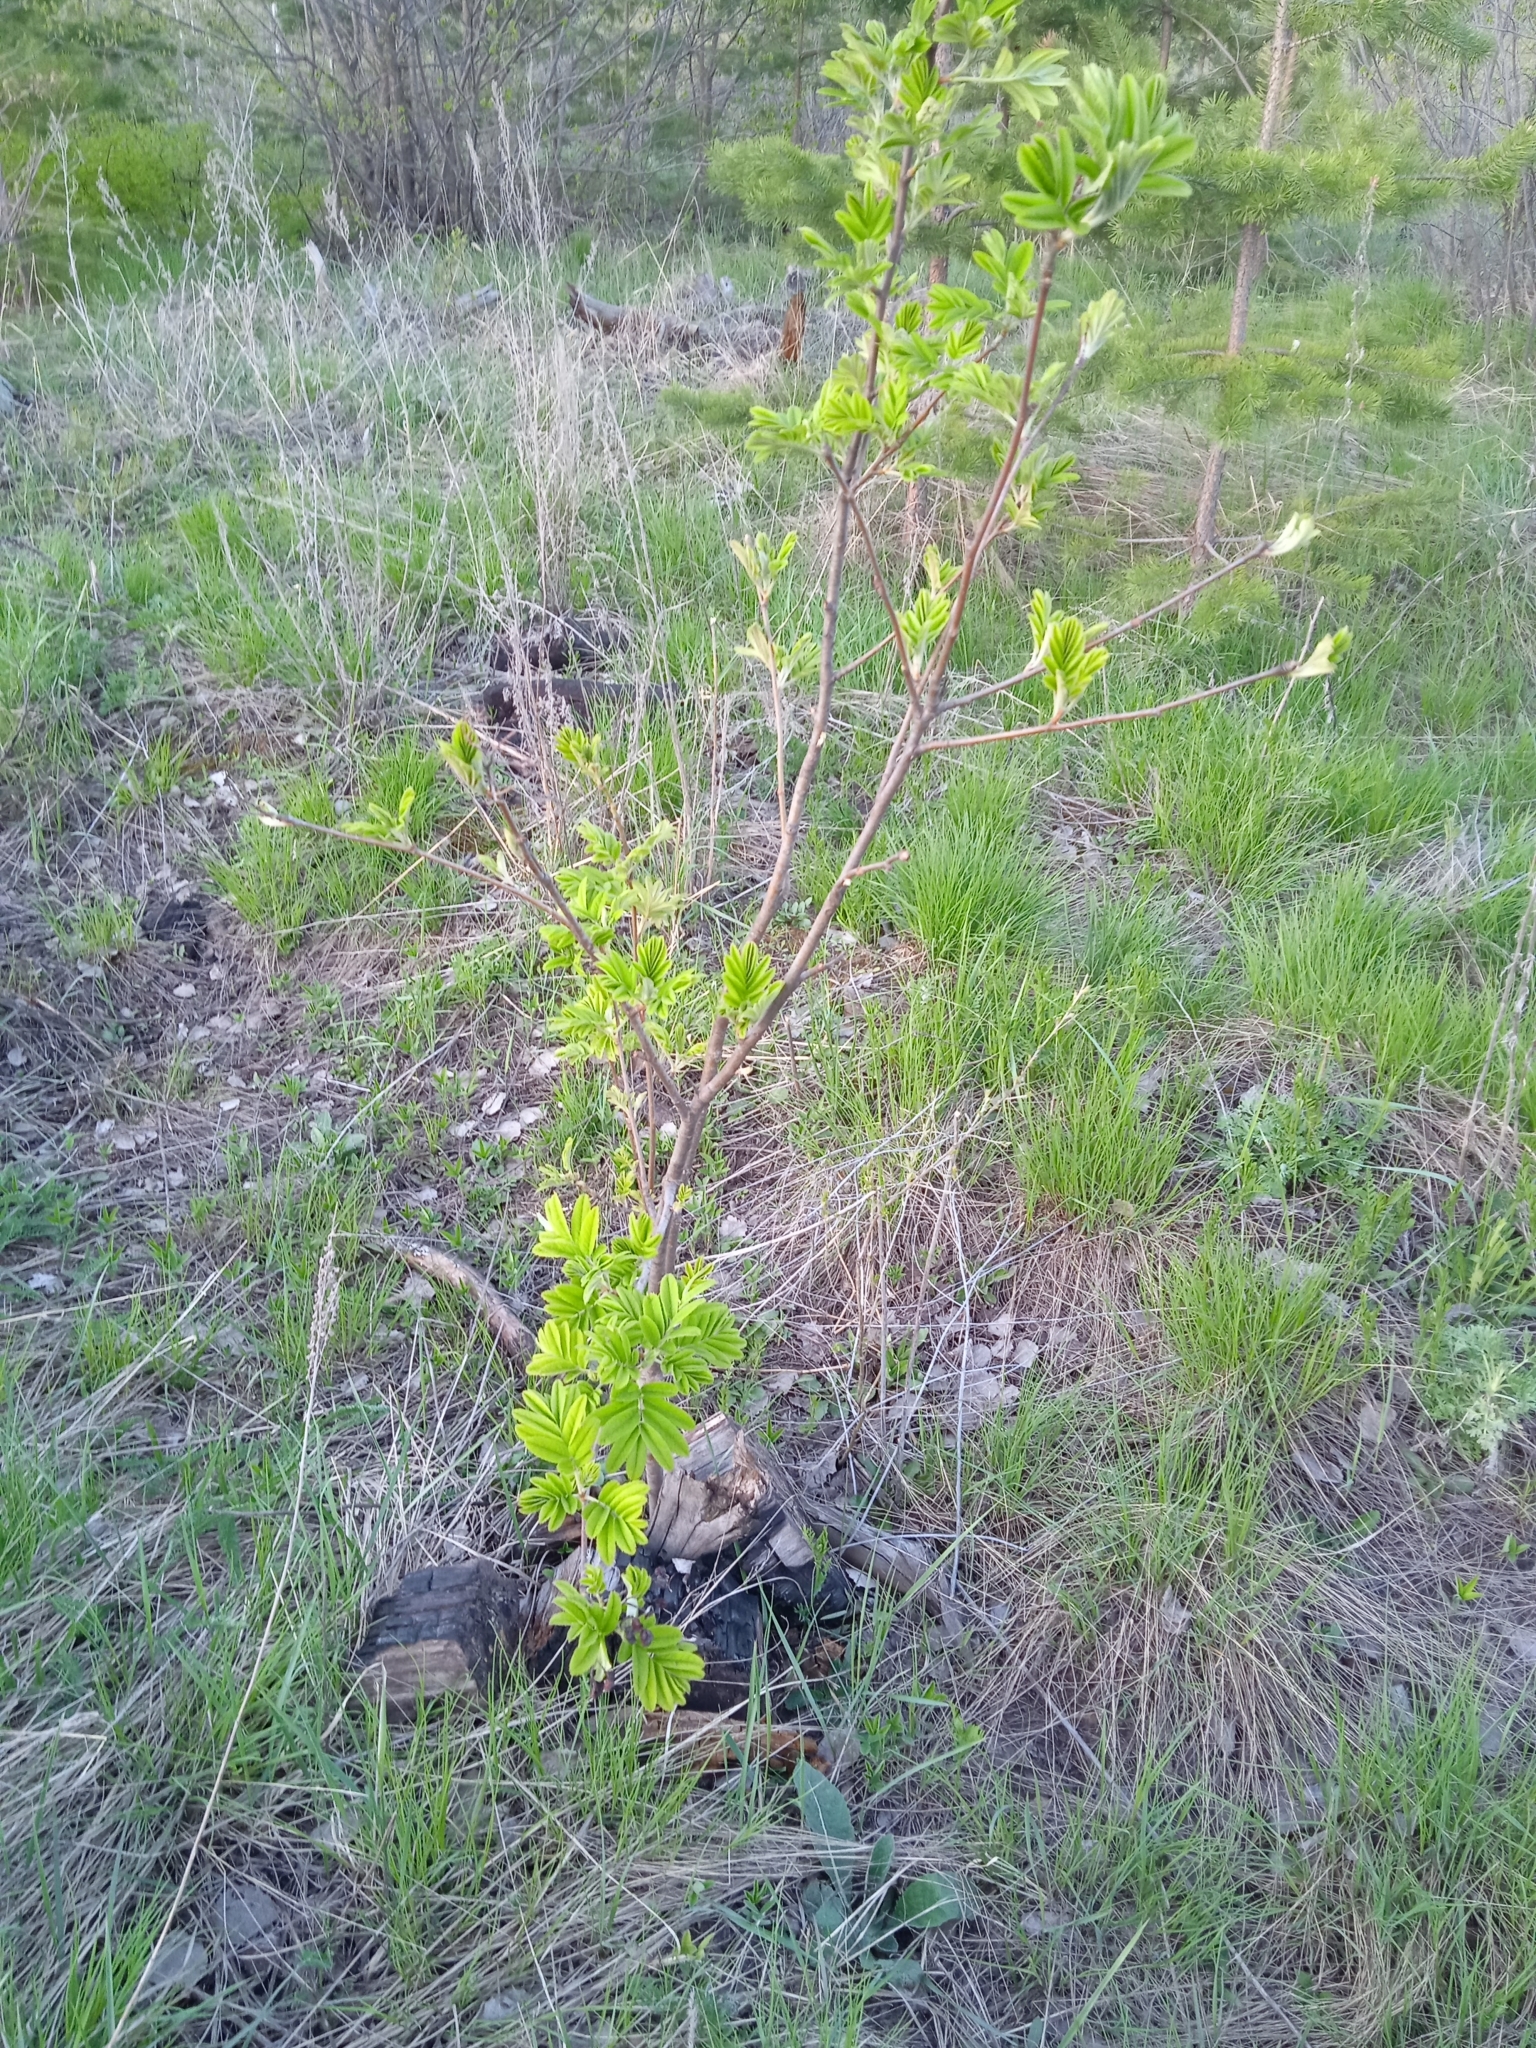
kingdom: Plantae
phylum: Tracheophyta
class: Magnoliopsida
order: Rosales
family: Rosaceae
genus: Sorbus
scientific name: Sorbus aucuparia
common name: Rowan
